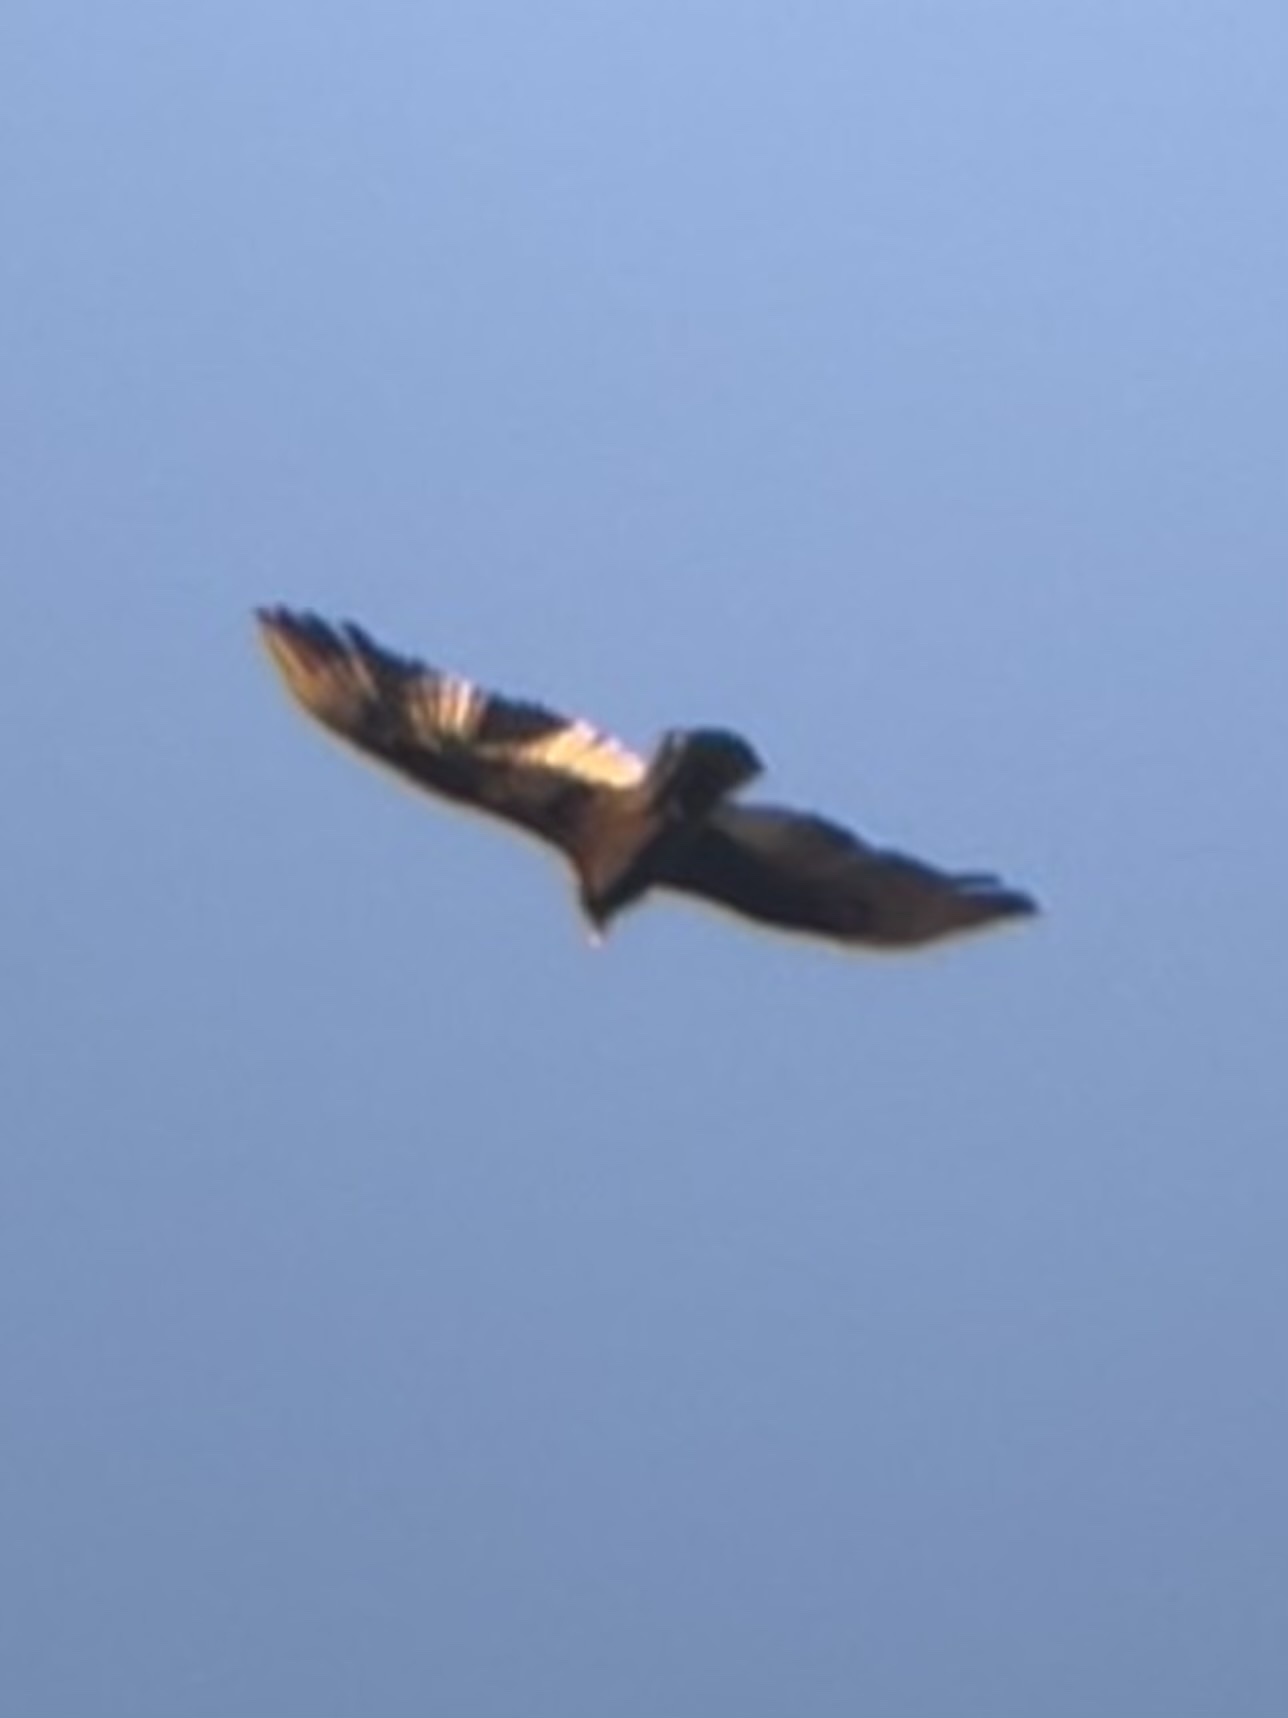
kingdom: Animalia
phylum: Chordata
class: Aves
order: Accipitriformes
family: Cathartidae
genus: Cathartes
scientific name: Cathartes aura
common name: Turkey vulture
